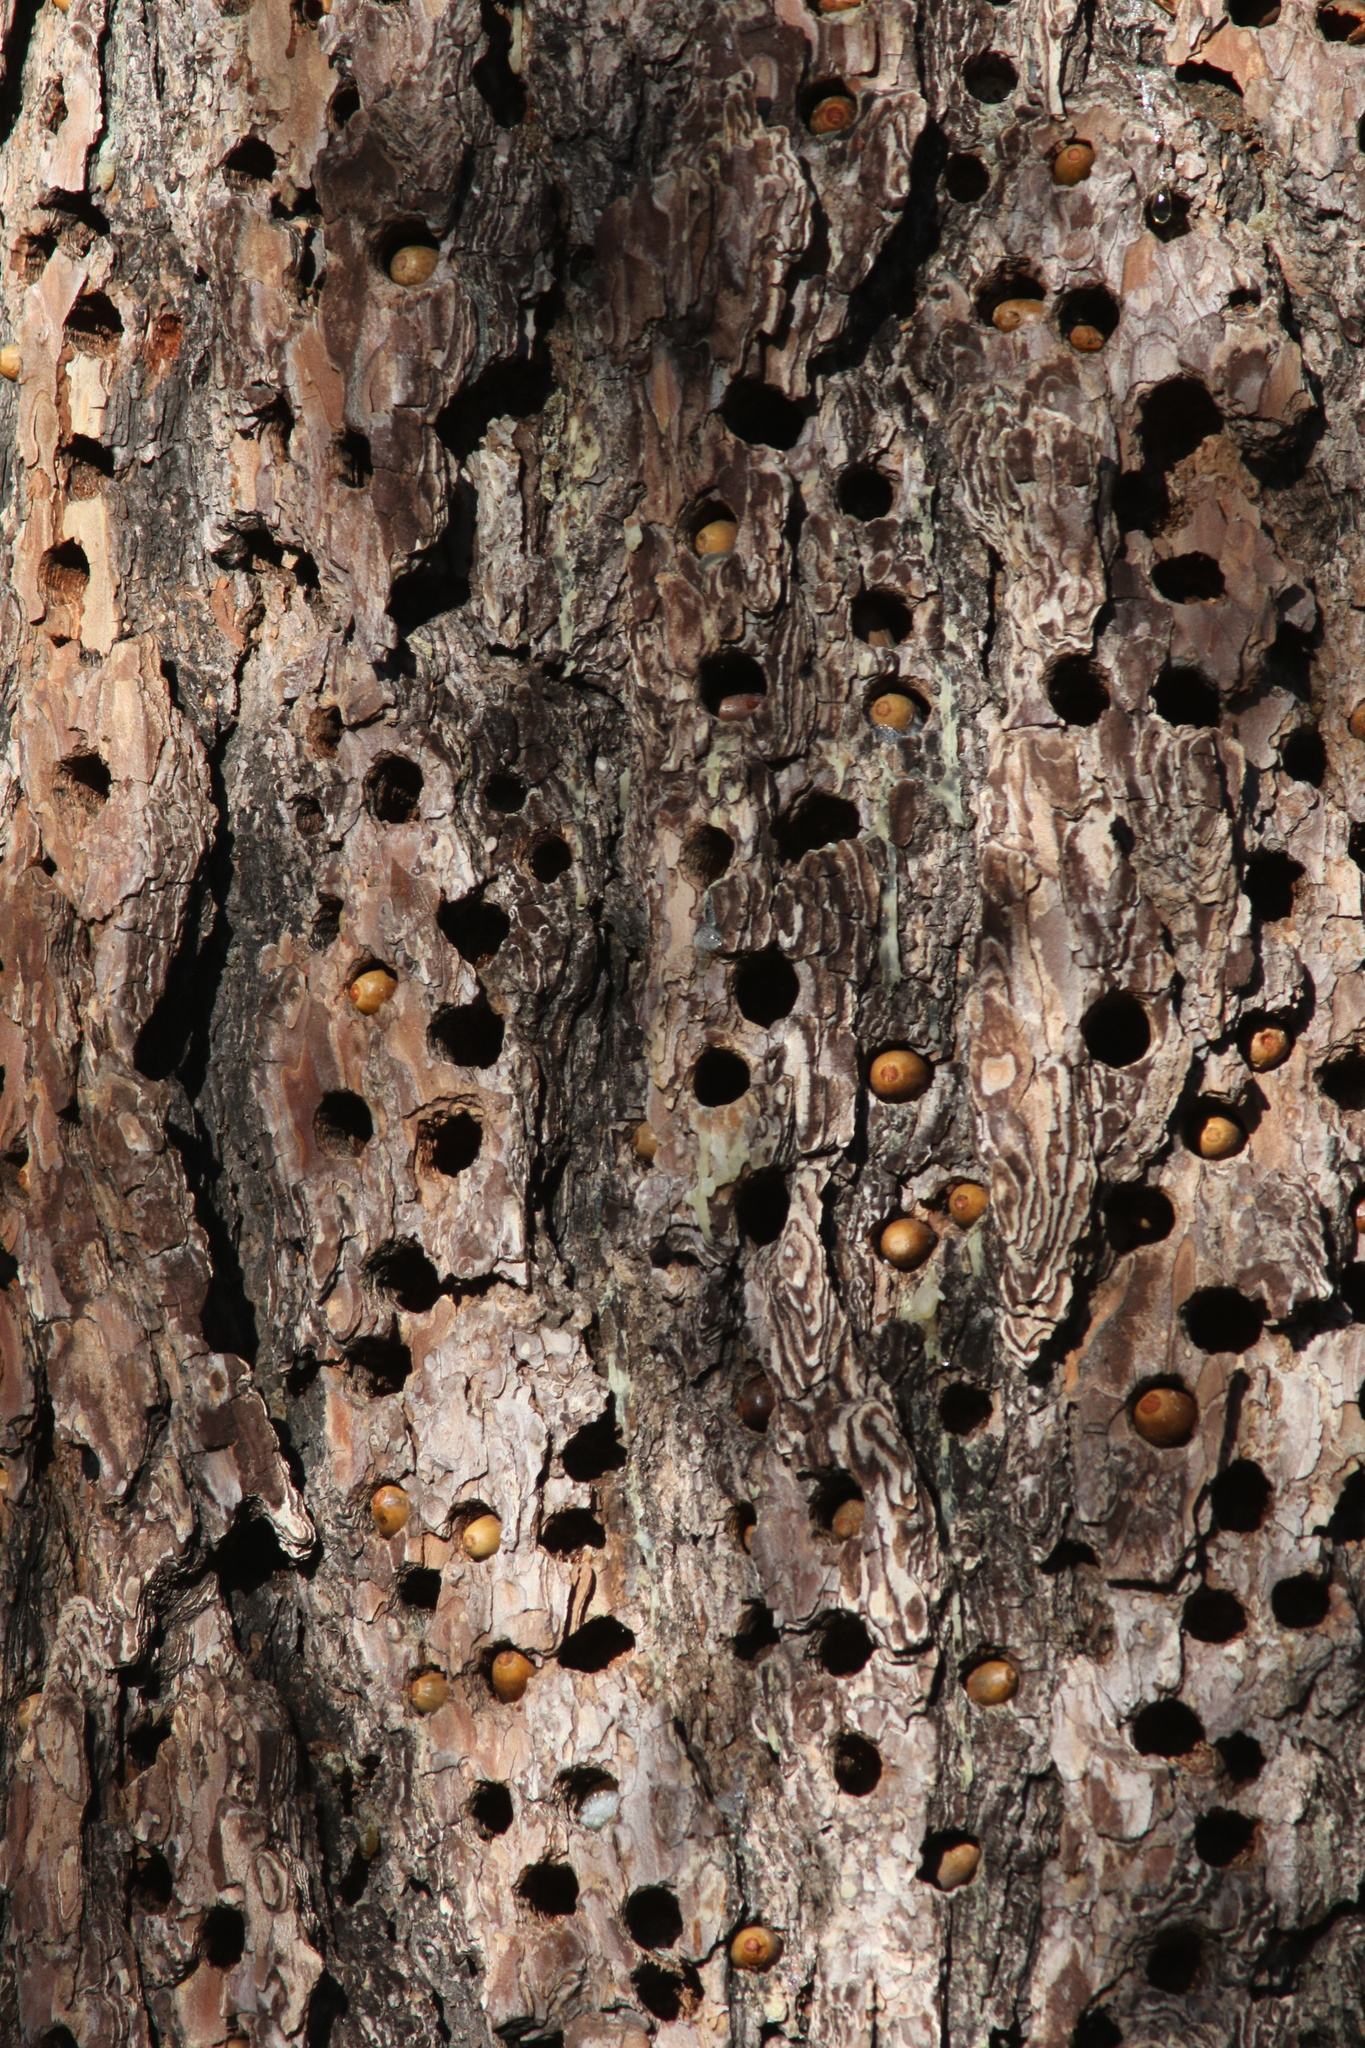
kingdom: Animalia
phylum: Chordata
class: Aves
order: Piciformes
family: Picidae
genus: Melanerpes
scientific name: Melanerpes formicivorus
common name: Acorn woodpecker
